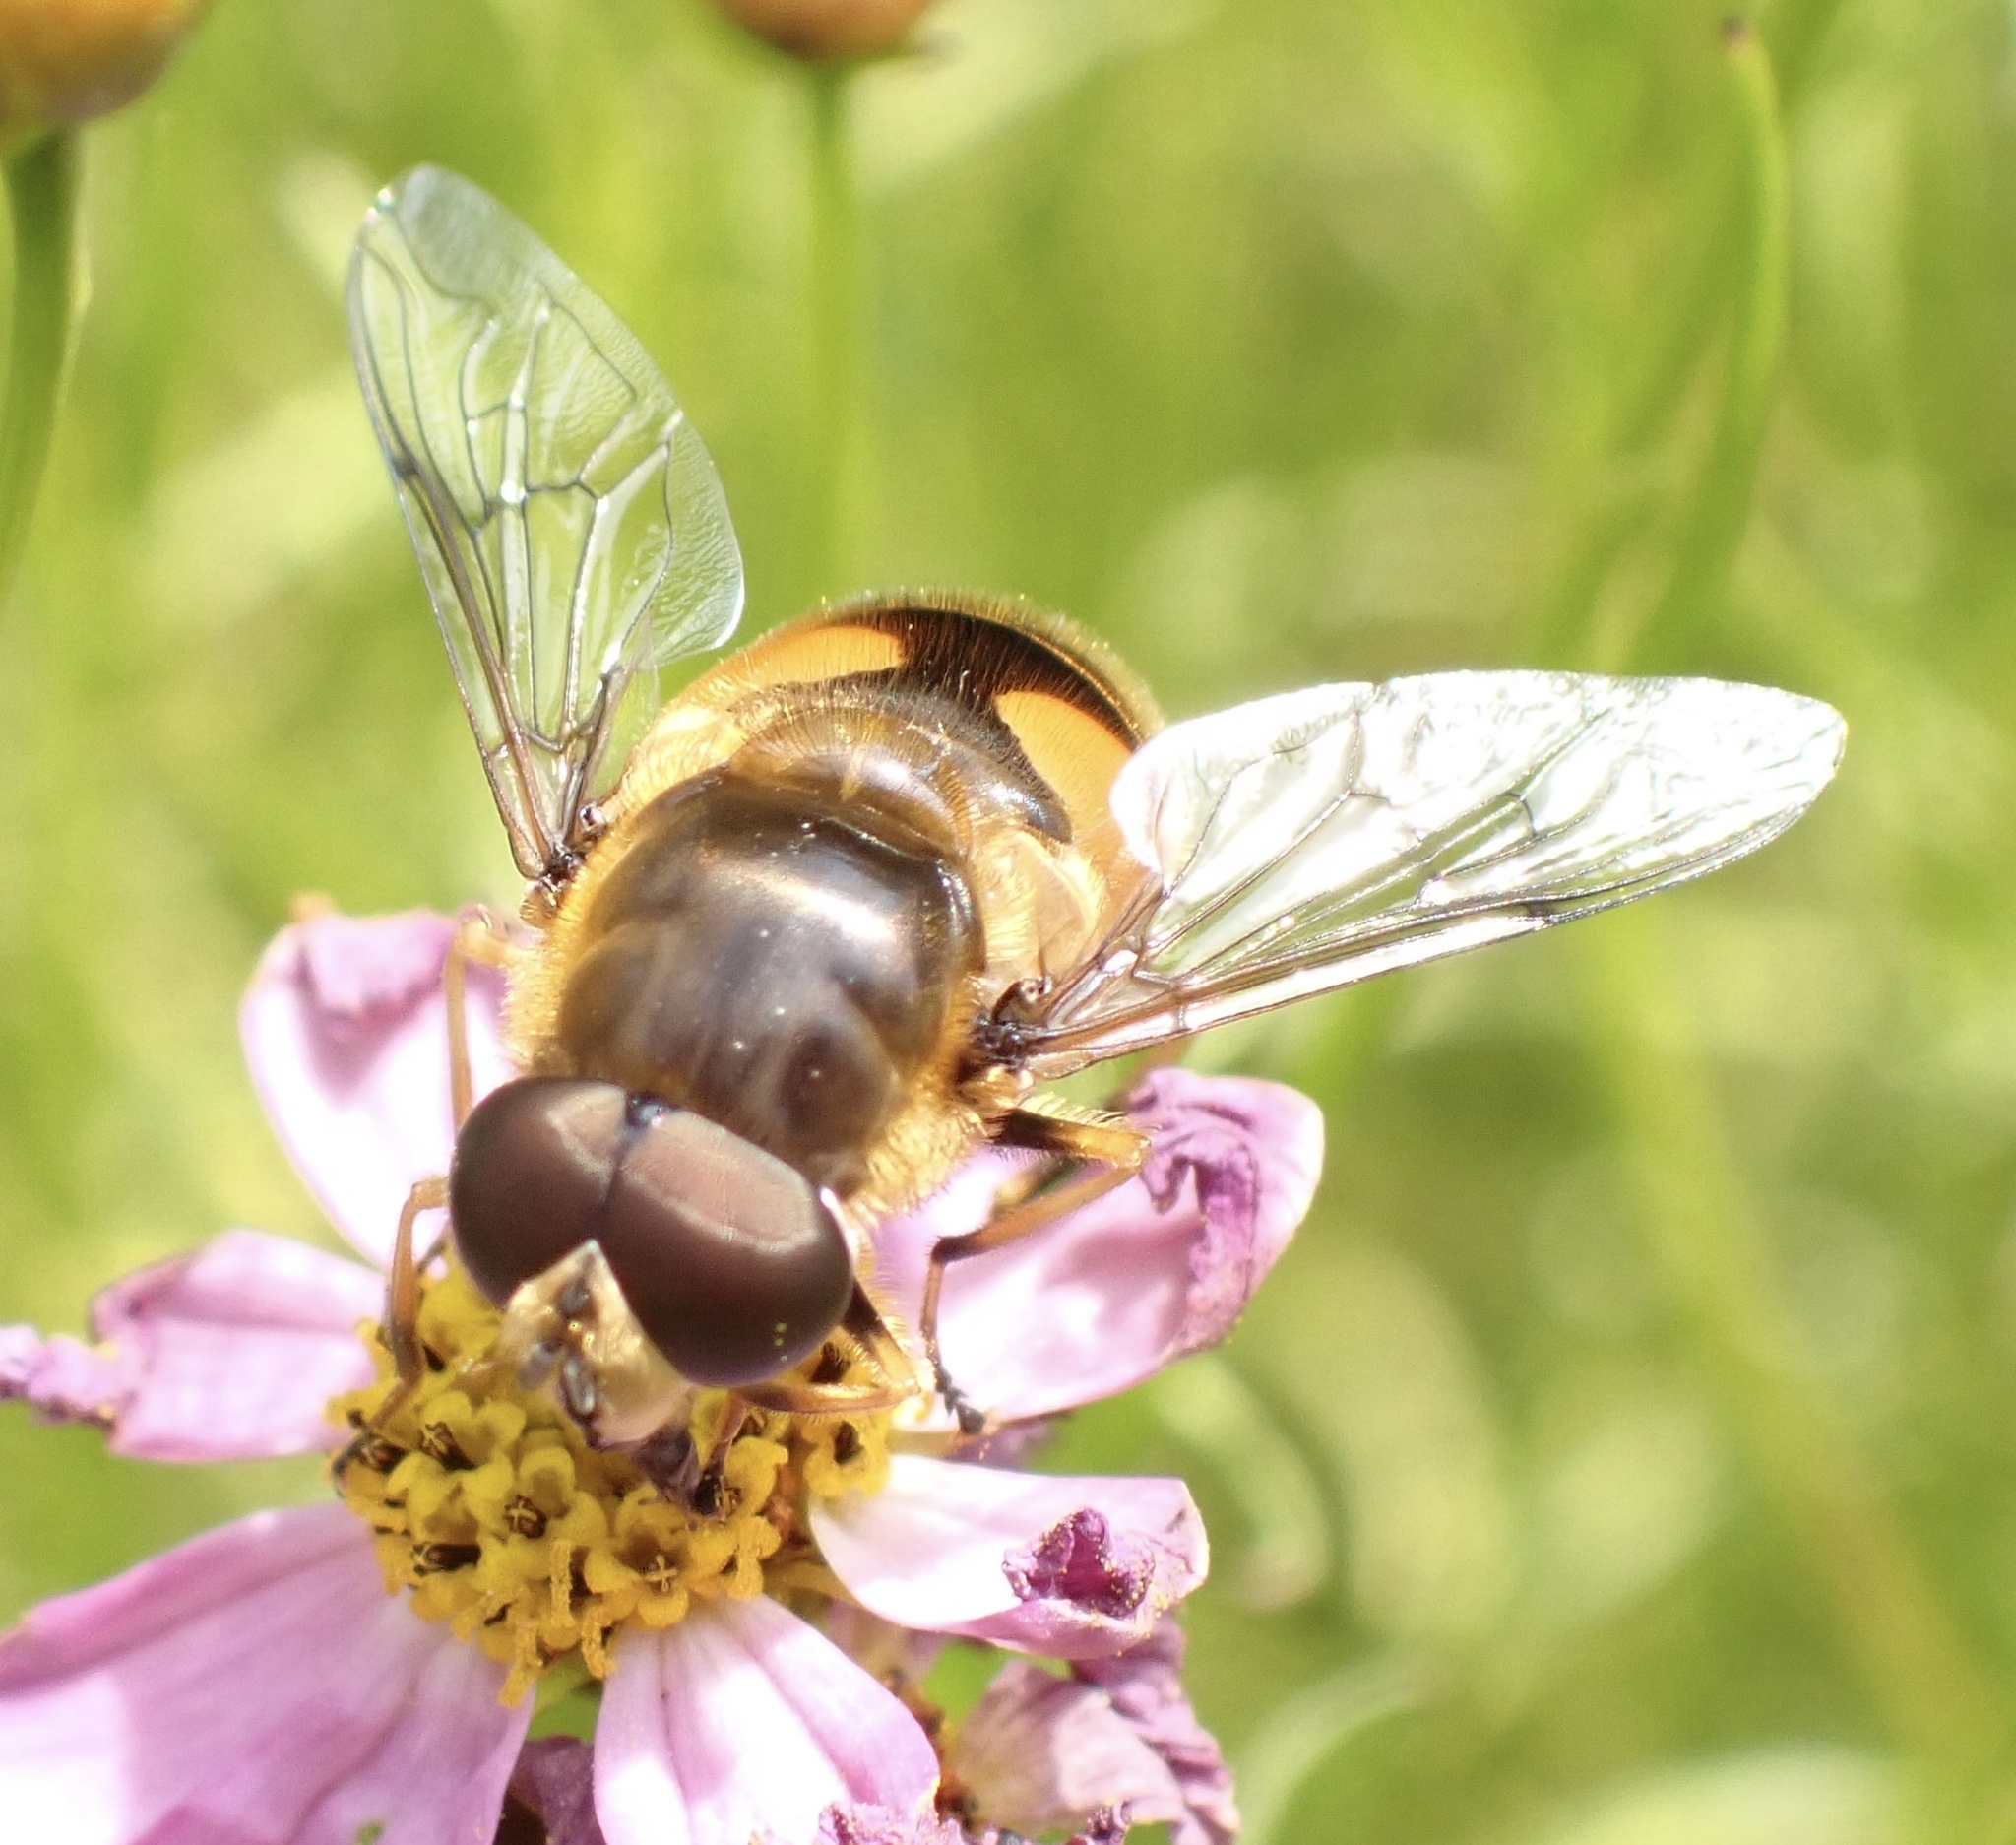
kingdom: Animalia
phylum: Arthropoda
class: Insecta
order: Diptera
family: Syrphidae
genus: Cheilosia
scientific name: Cheilosia morio
